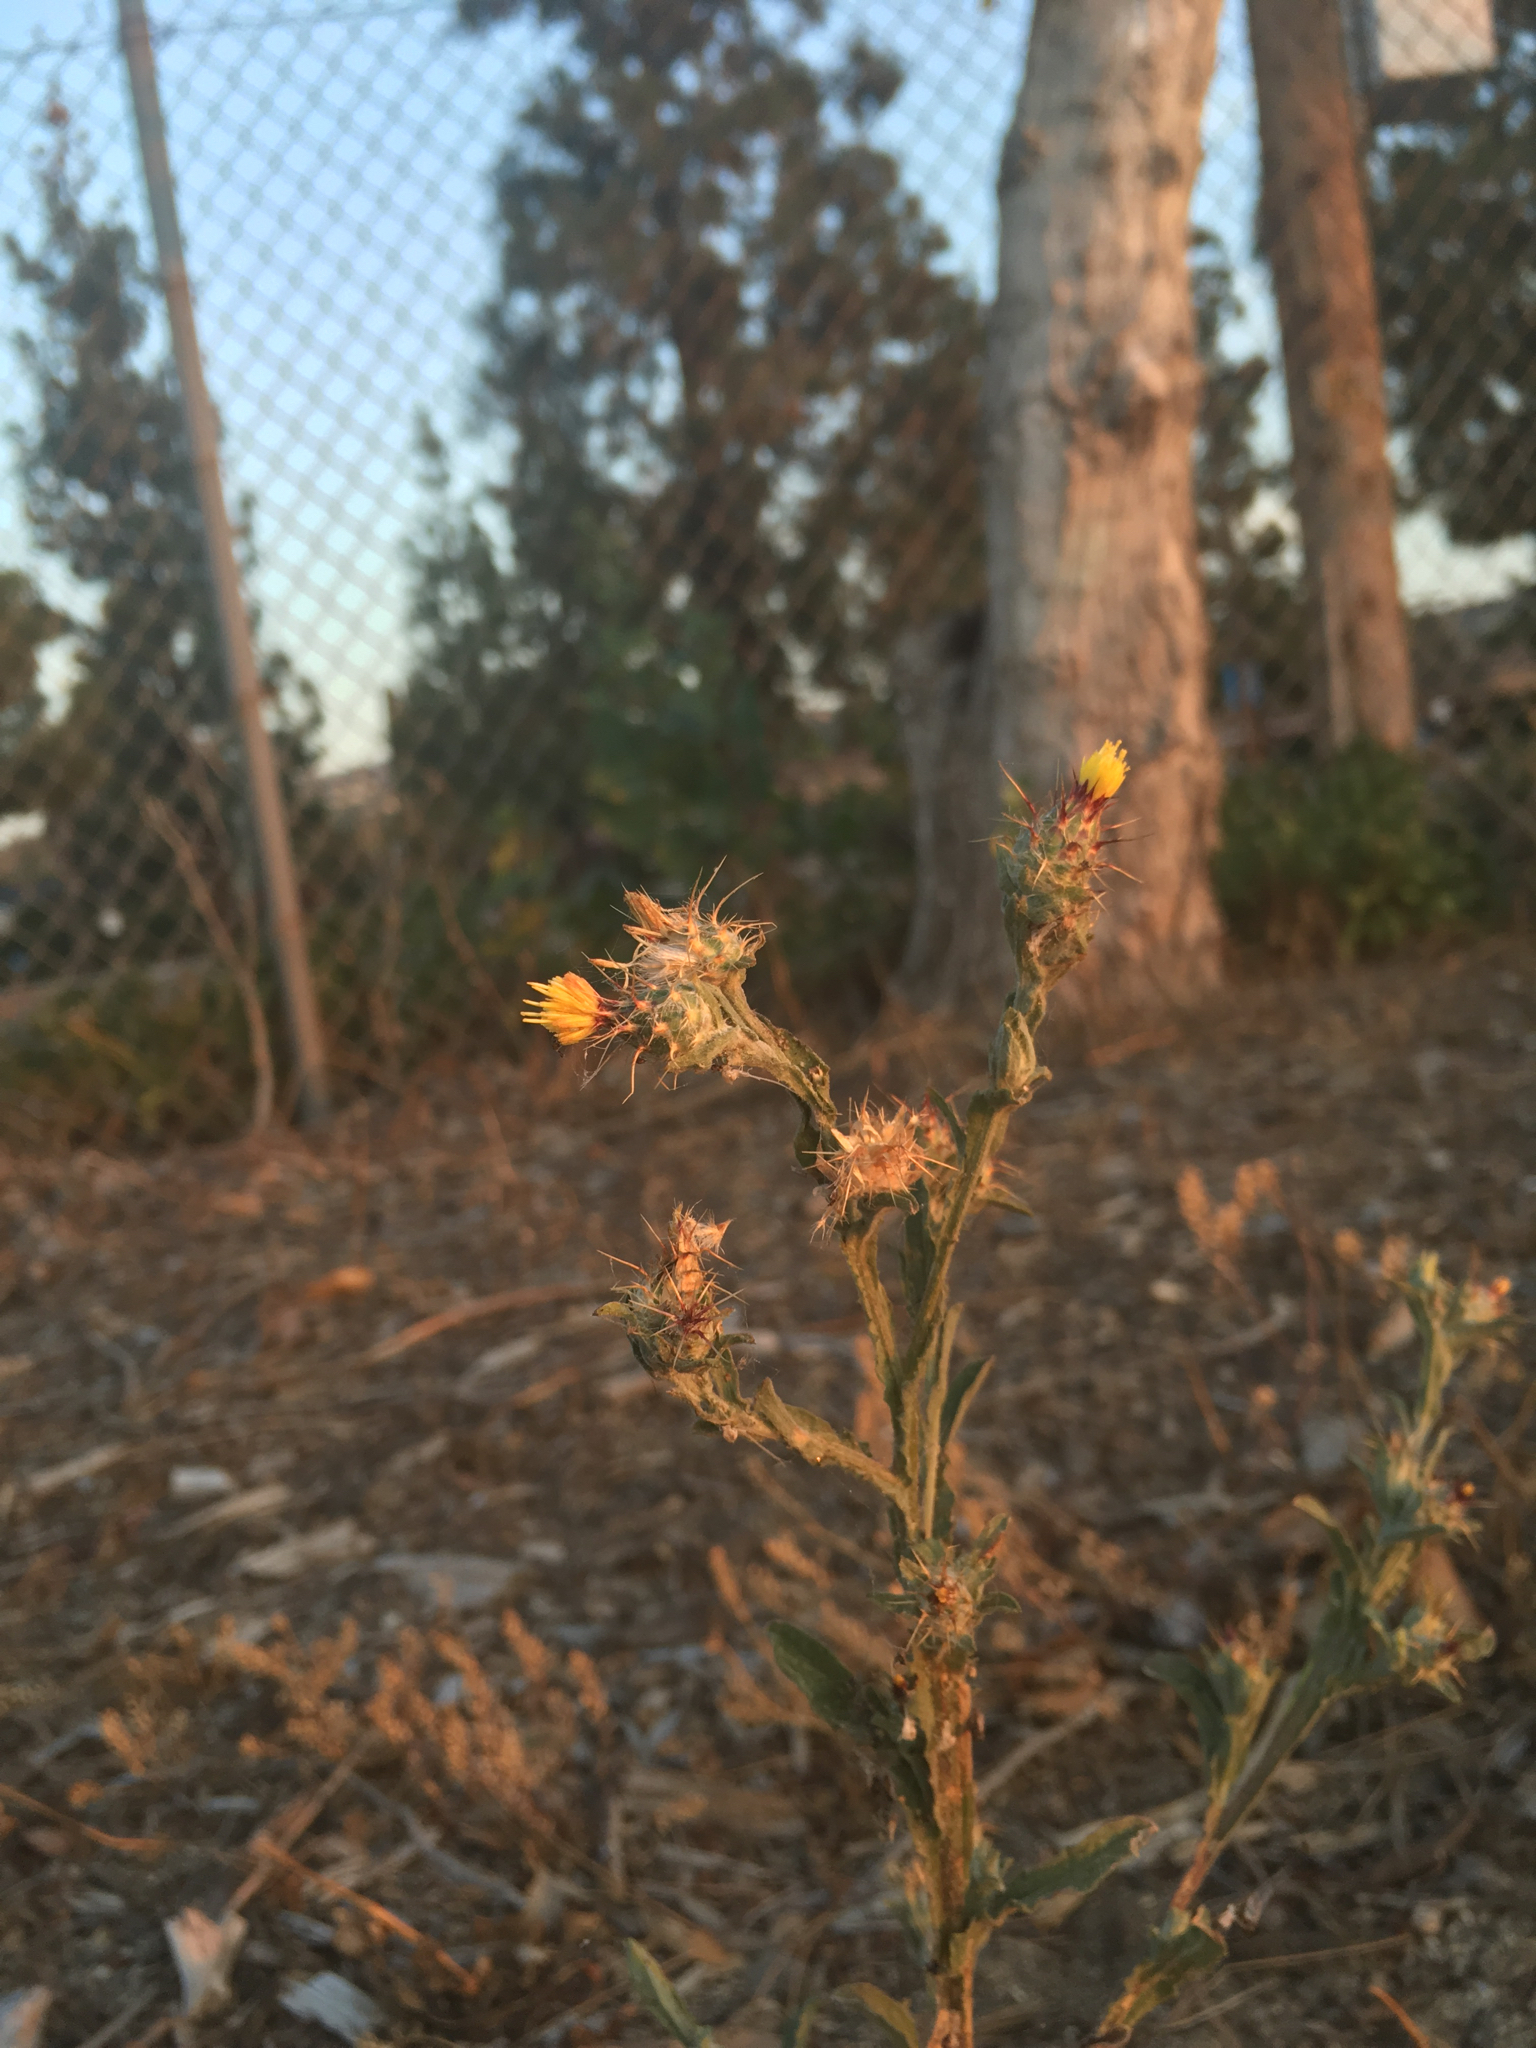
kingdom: Plantae
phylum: Tracheophyta
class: Magnoliopsida
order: Asterales
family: Asteraceae
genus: Centaurea
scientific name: Centaurea melitensis
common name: Maltese star-thistle
